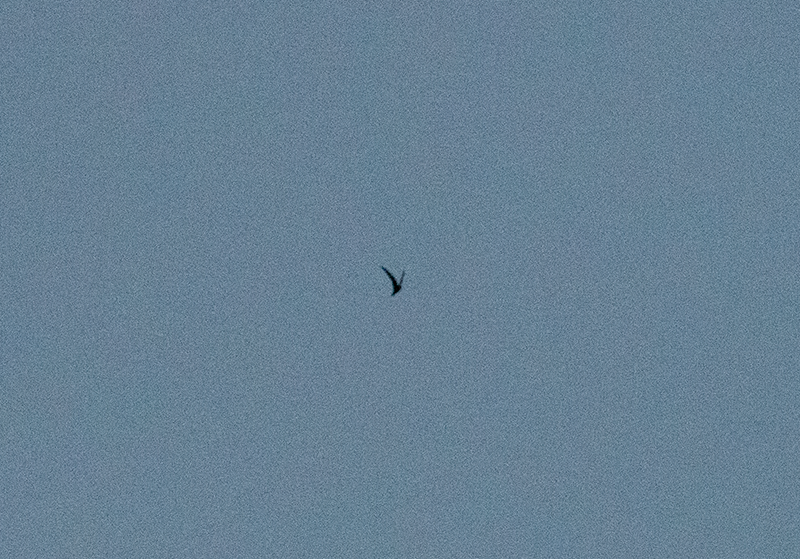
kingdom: Animalia
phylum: Chordata
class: Aves
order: Caprimulgiformes
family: Caprimulgidae
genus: Chordeiles
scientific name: Chordeiles minor
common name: Common nighthawk
